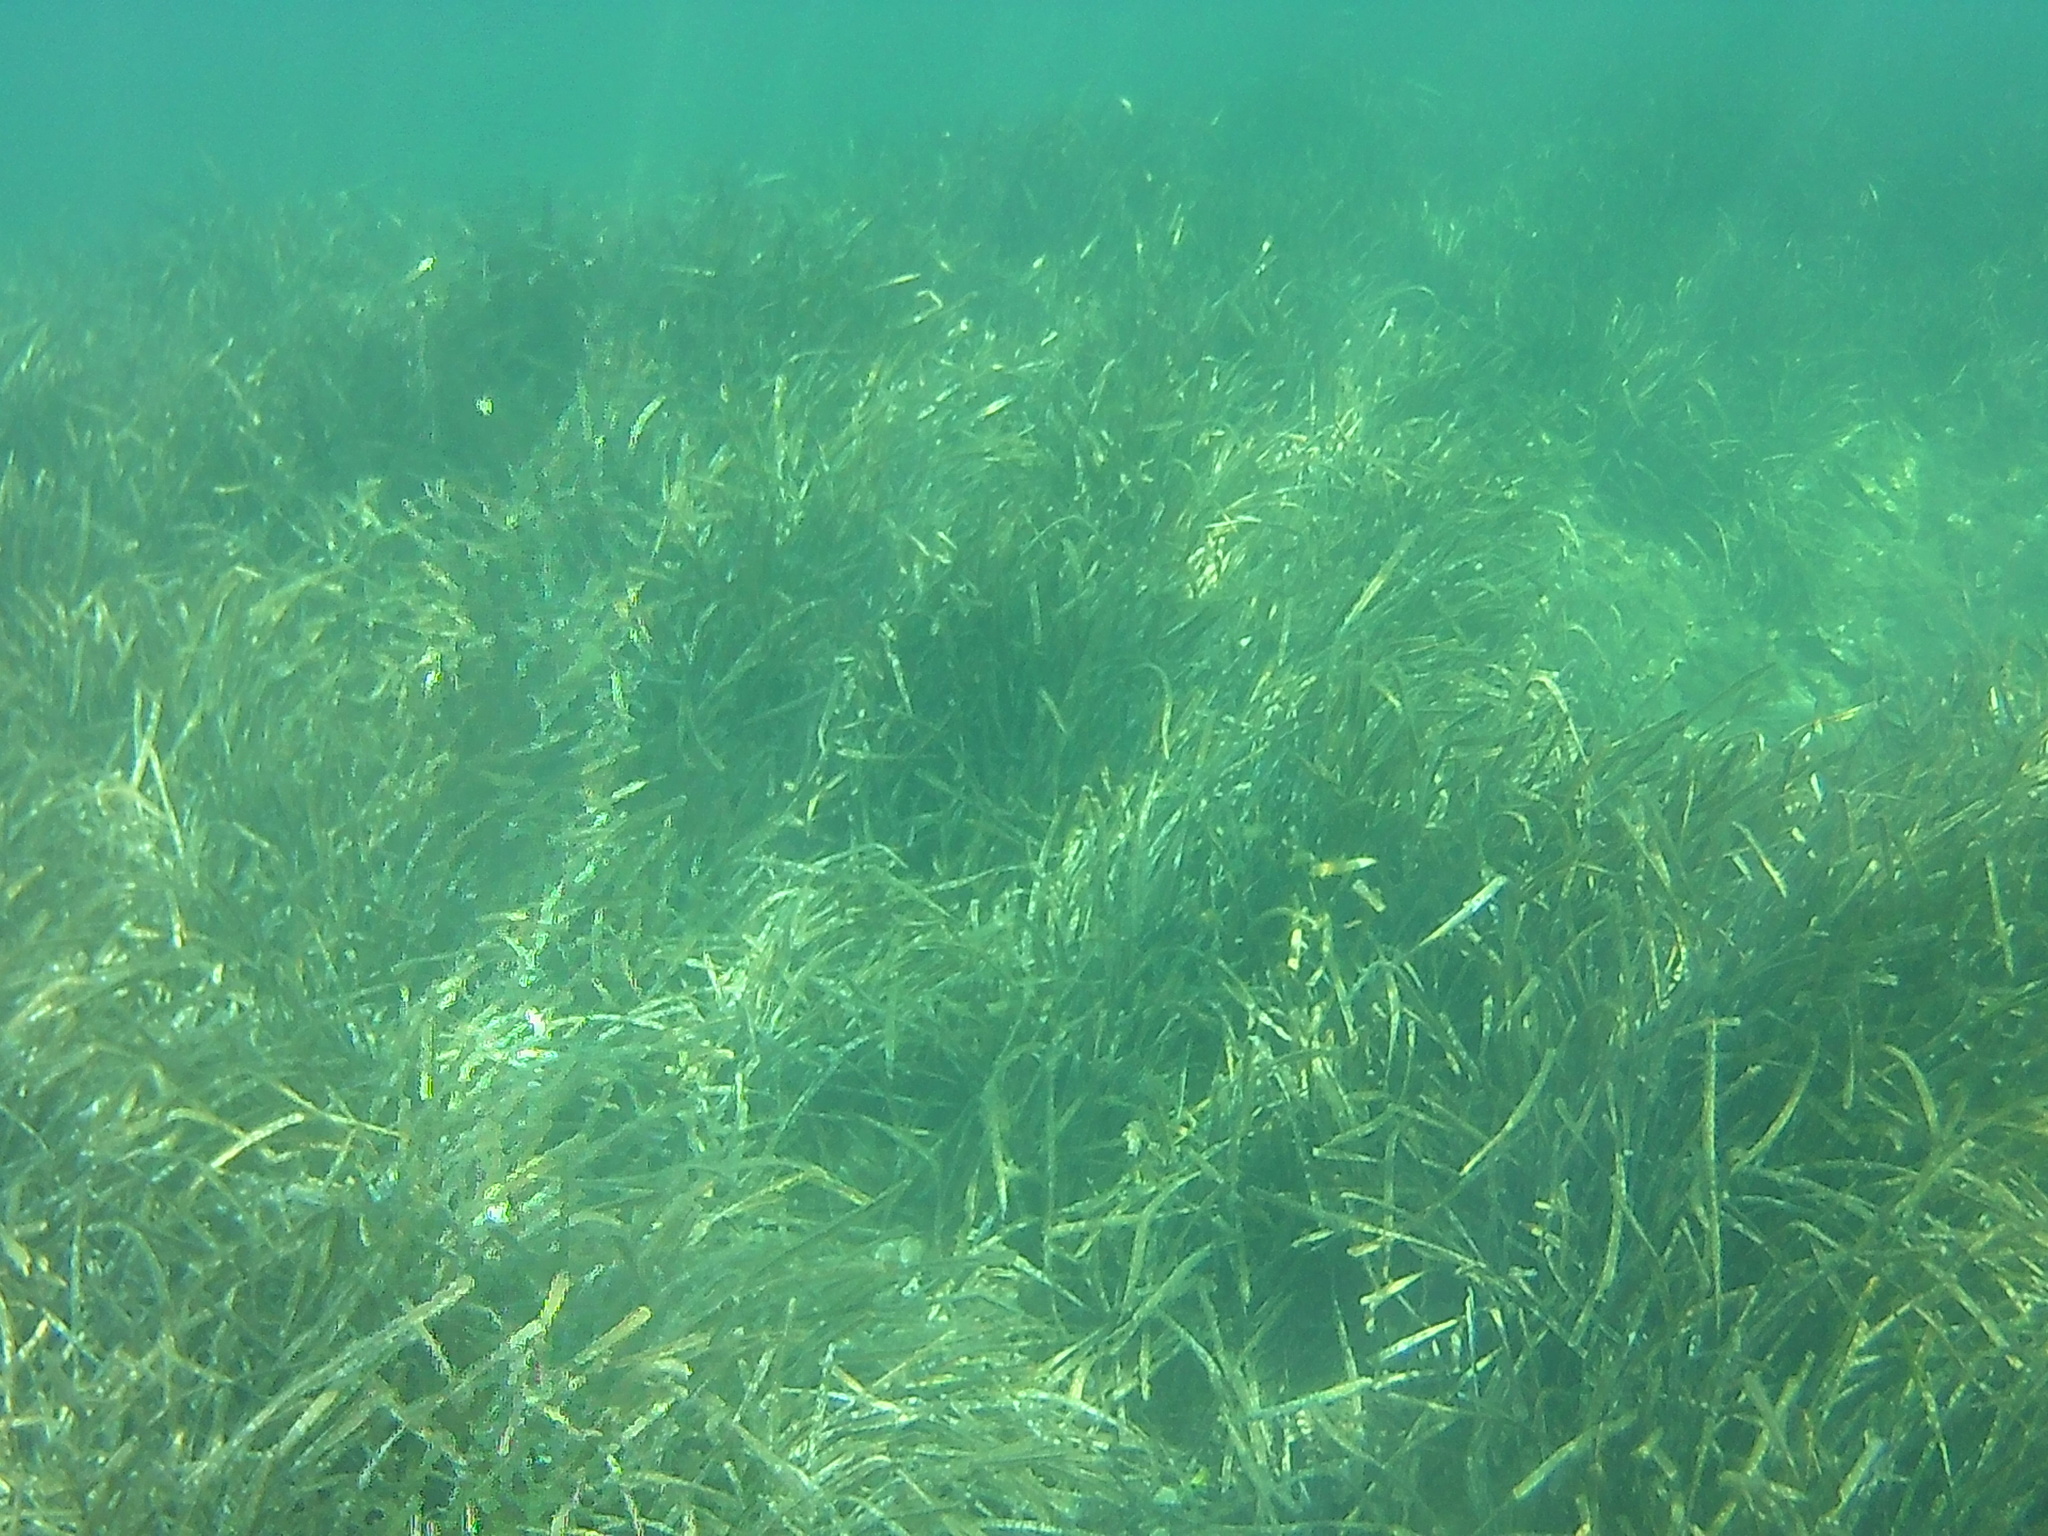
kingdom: Plantae
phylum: Tracheophyta
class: Liliopsida
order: Alismatales
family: Posidoniaceae
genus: Posidonia
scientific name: Posidonia oceanica
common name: Mediterranean tapeweed
